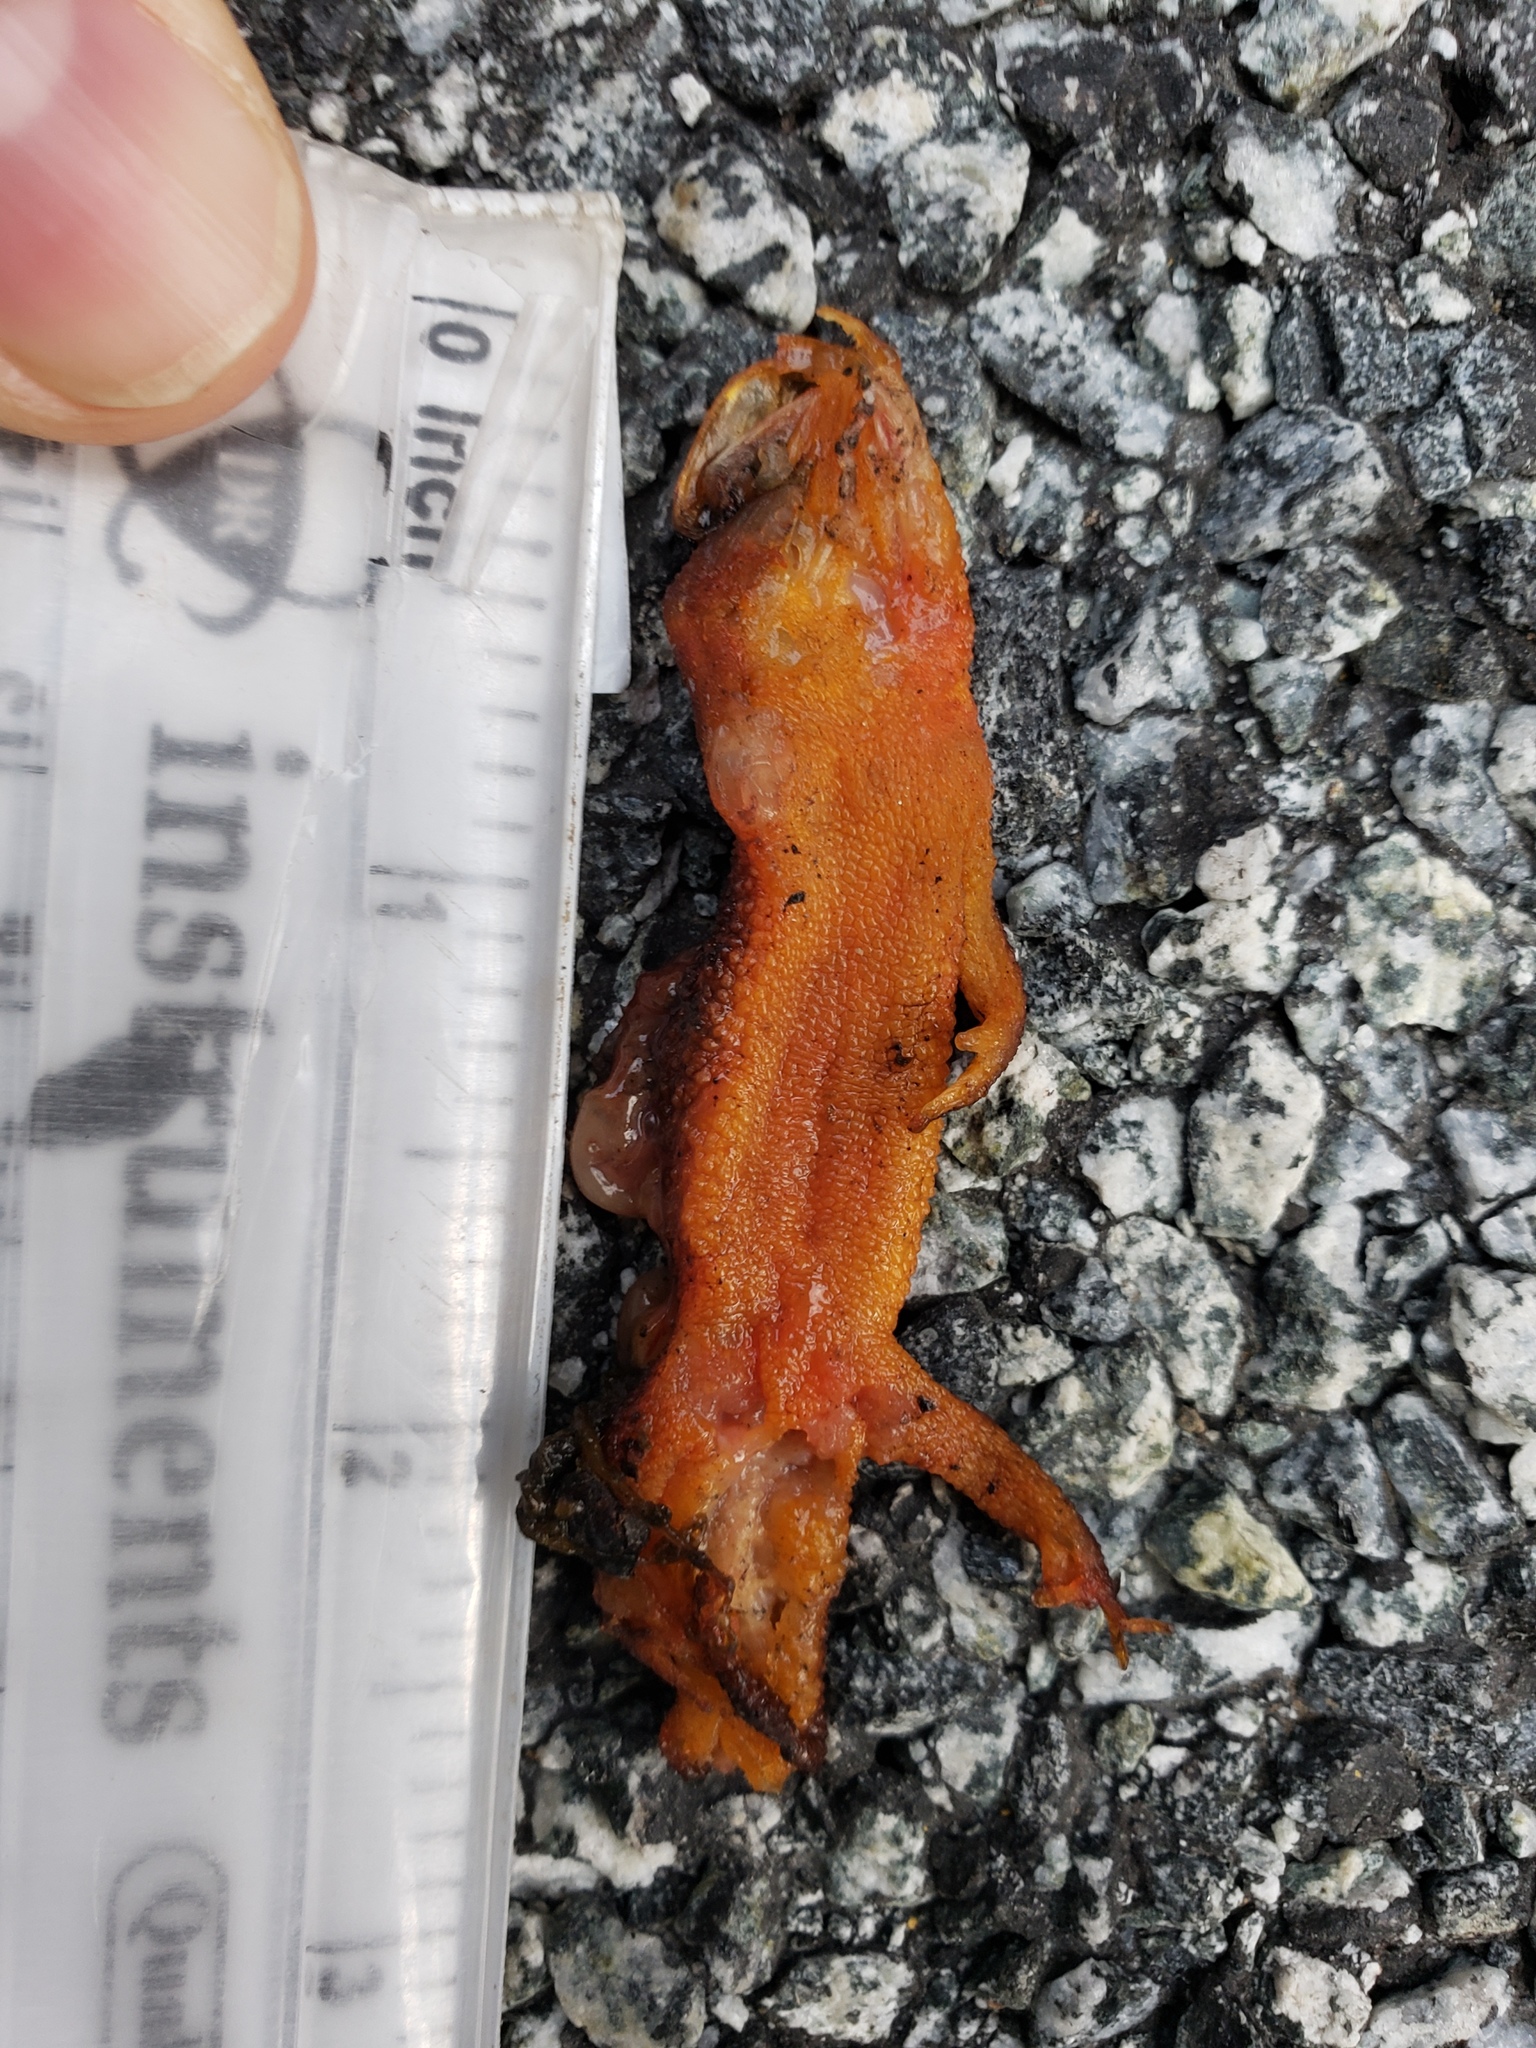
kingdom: Animalia
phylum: Chordata
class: Amphibia
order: Caudata
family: Salamandridae
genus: Taricha
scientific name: Taricha
